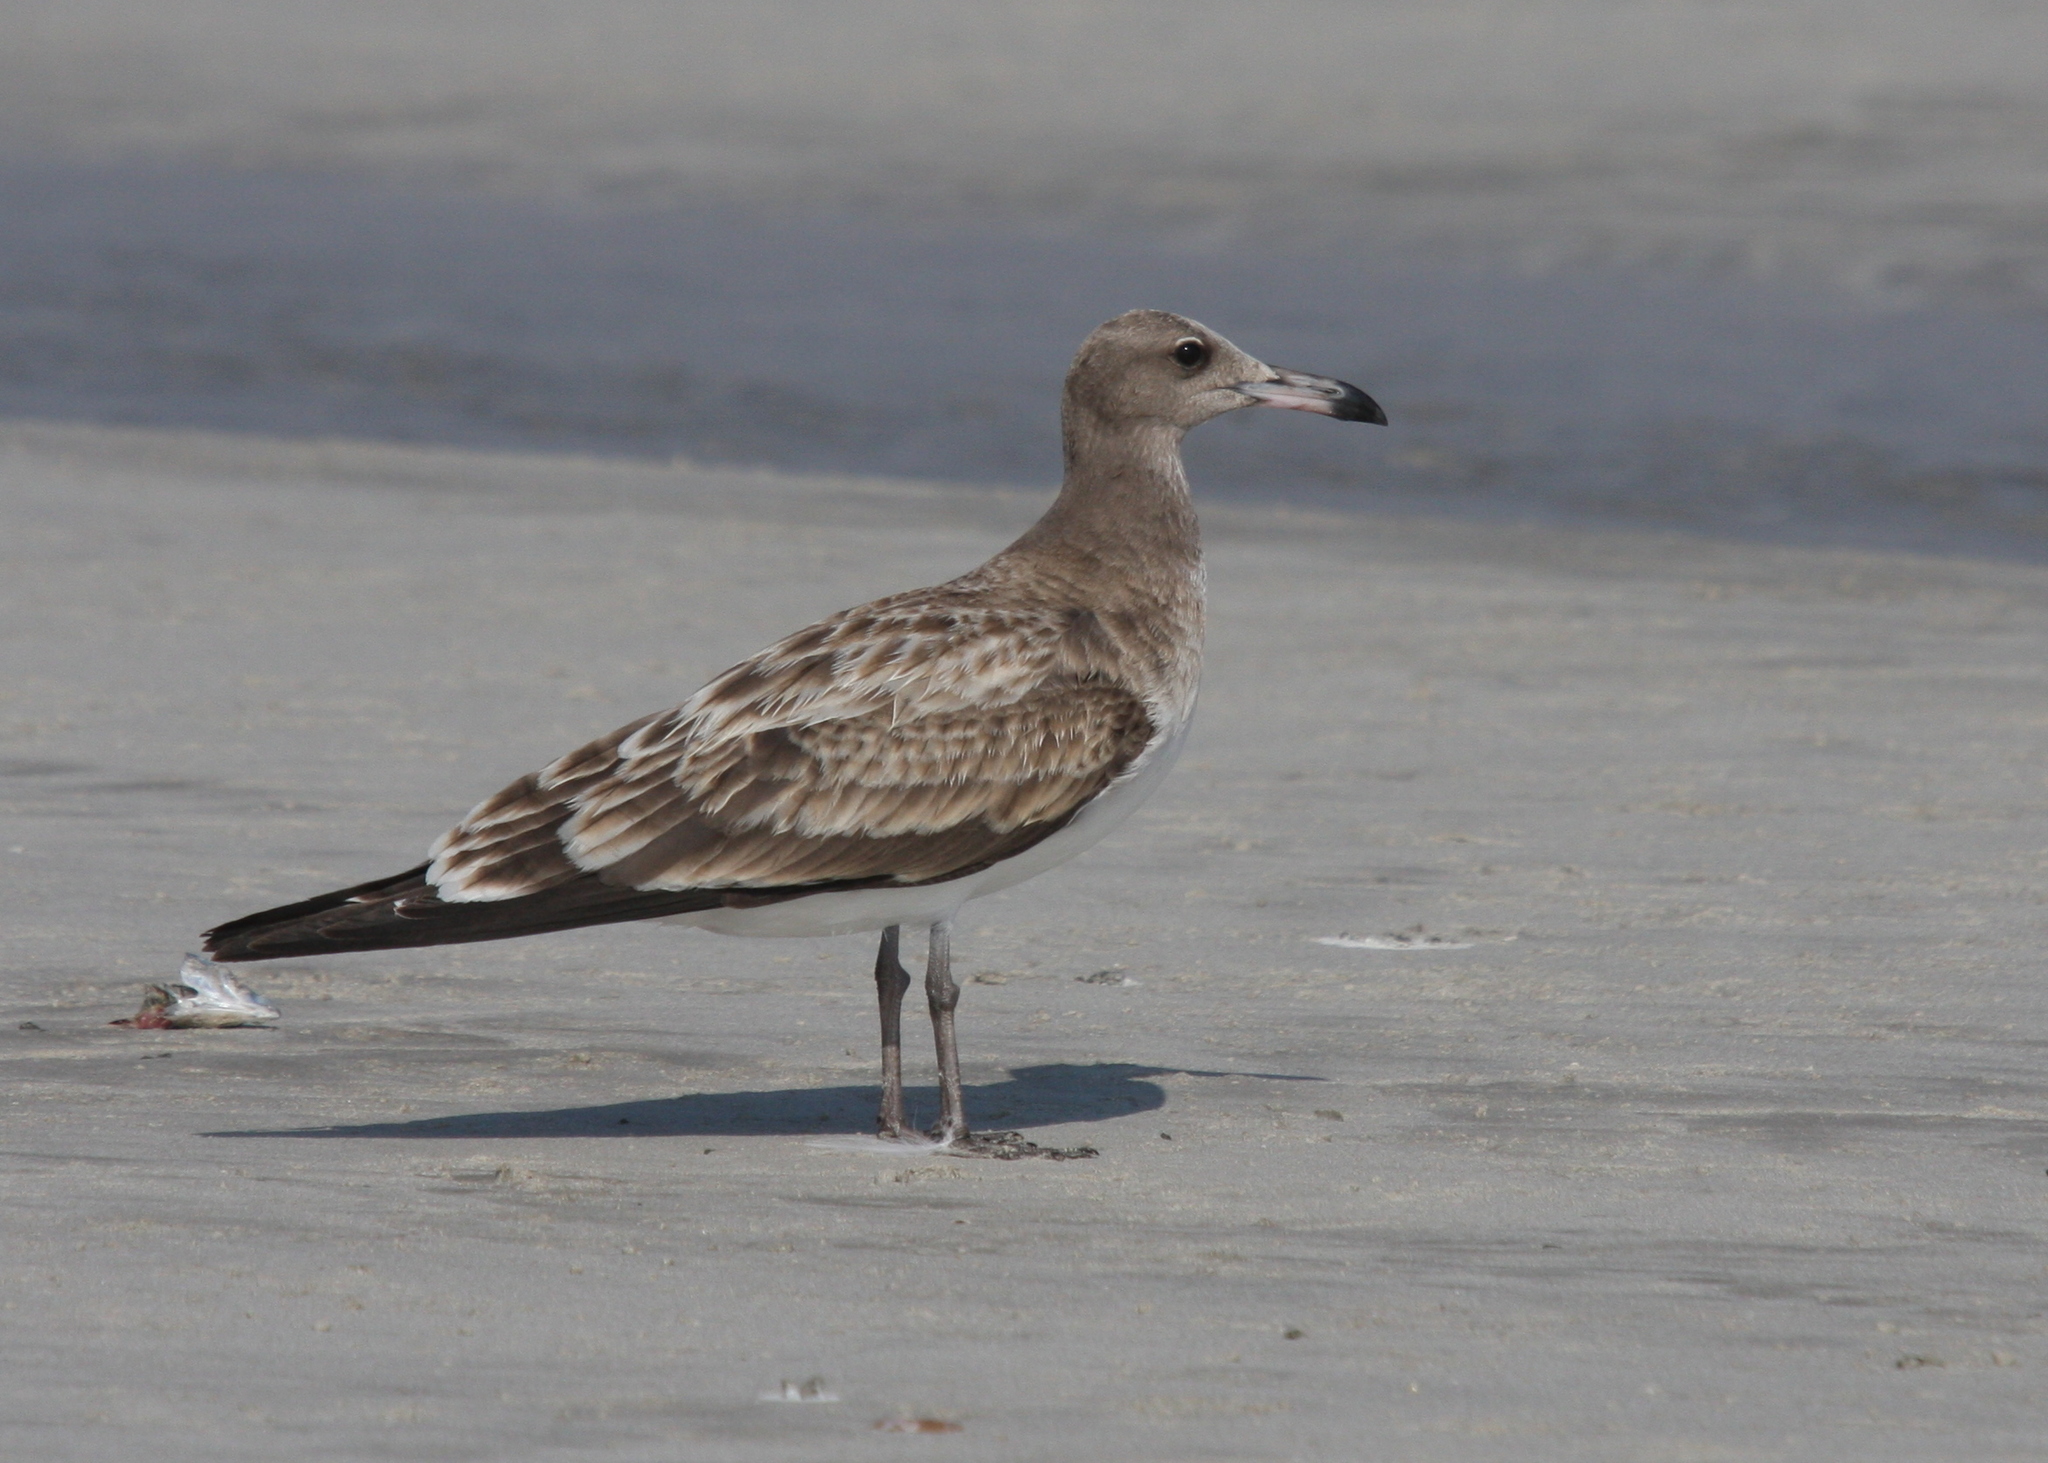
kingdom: Animalia
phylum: Chordata
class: Aves
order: Charadriiformes
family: Laridae
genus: Ichthyaetus
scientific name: Ichthyaetus hemprichii
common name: Sooty gull
